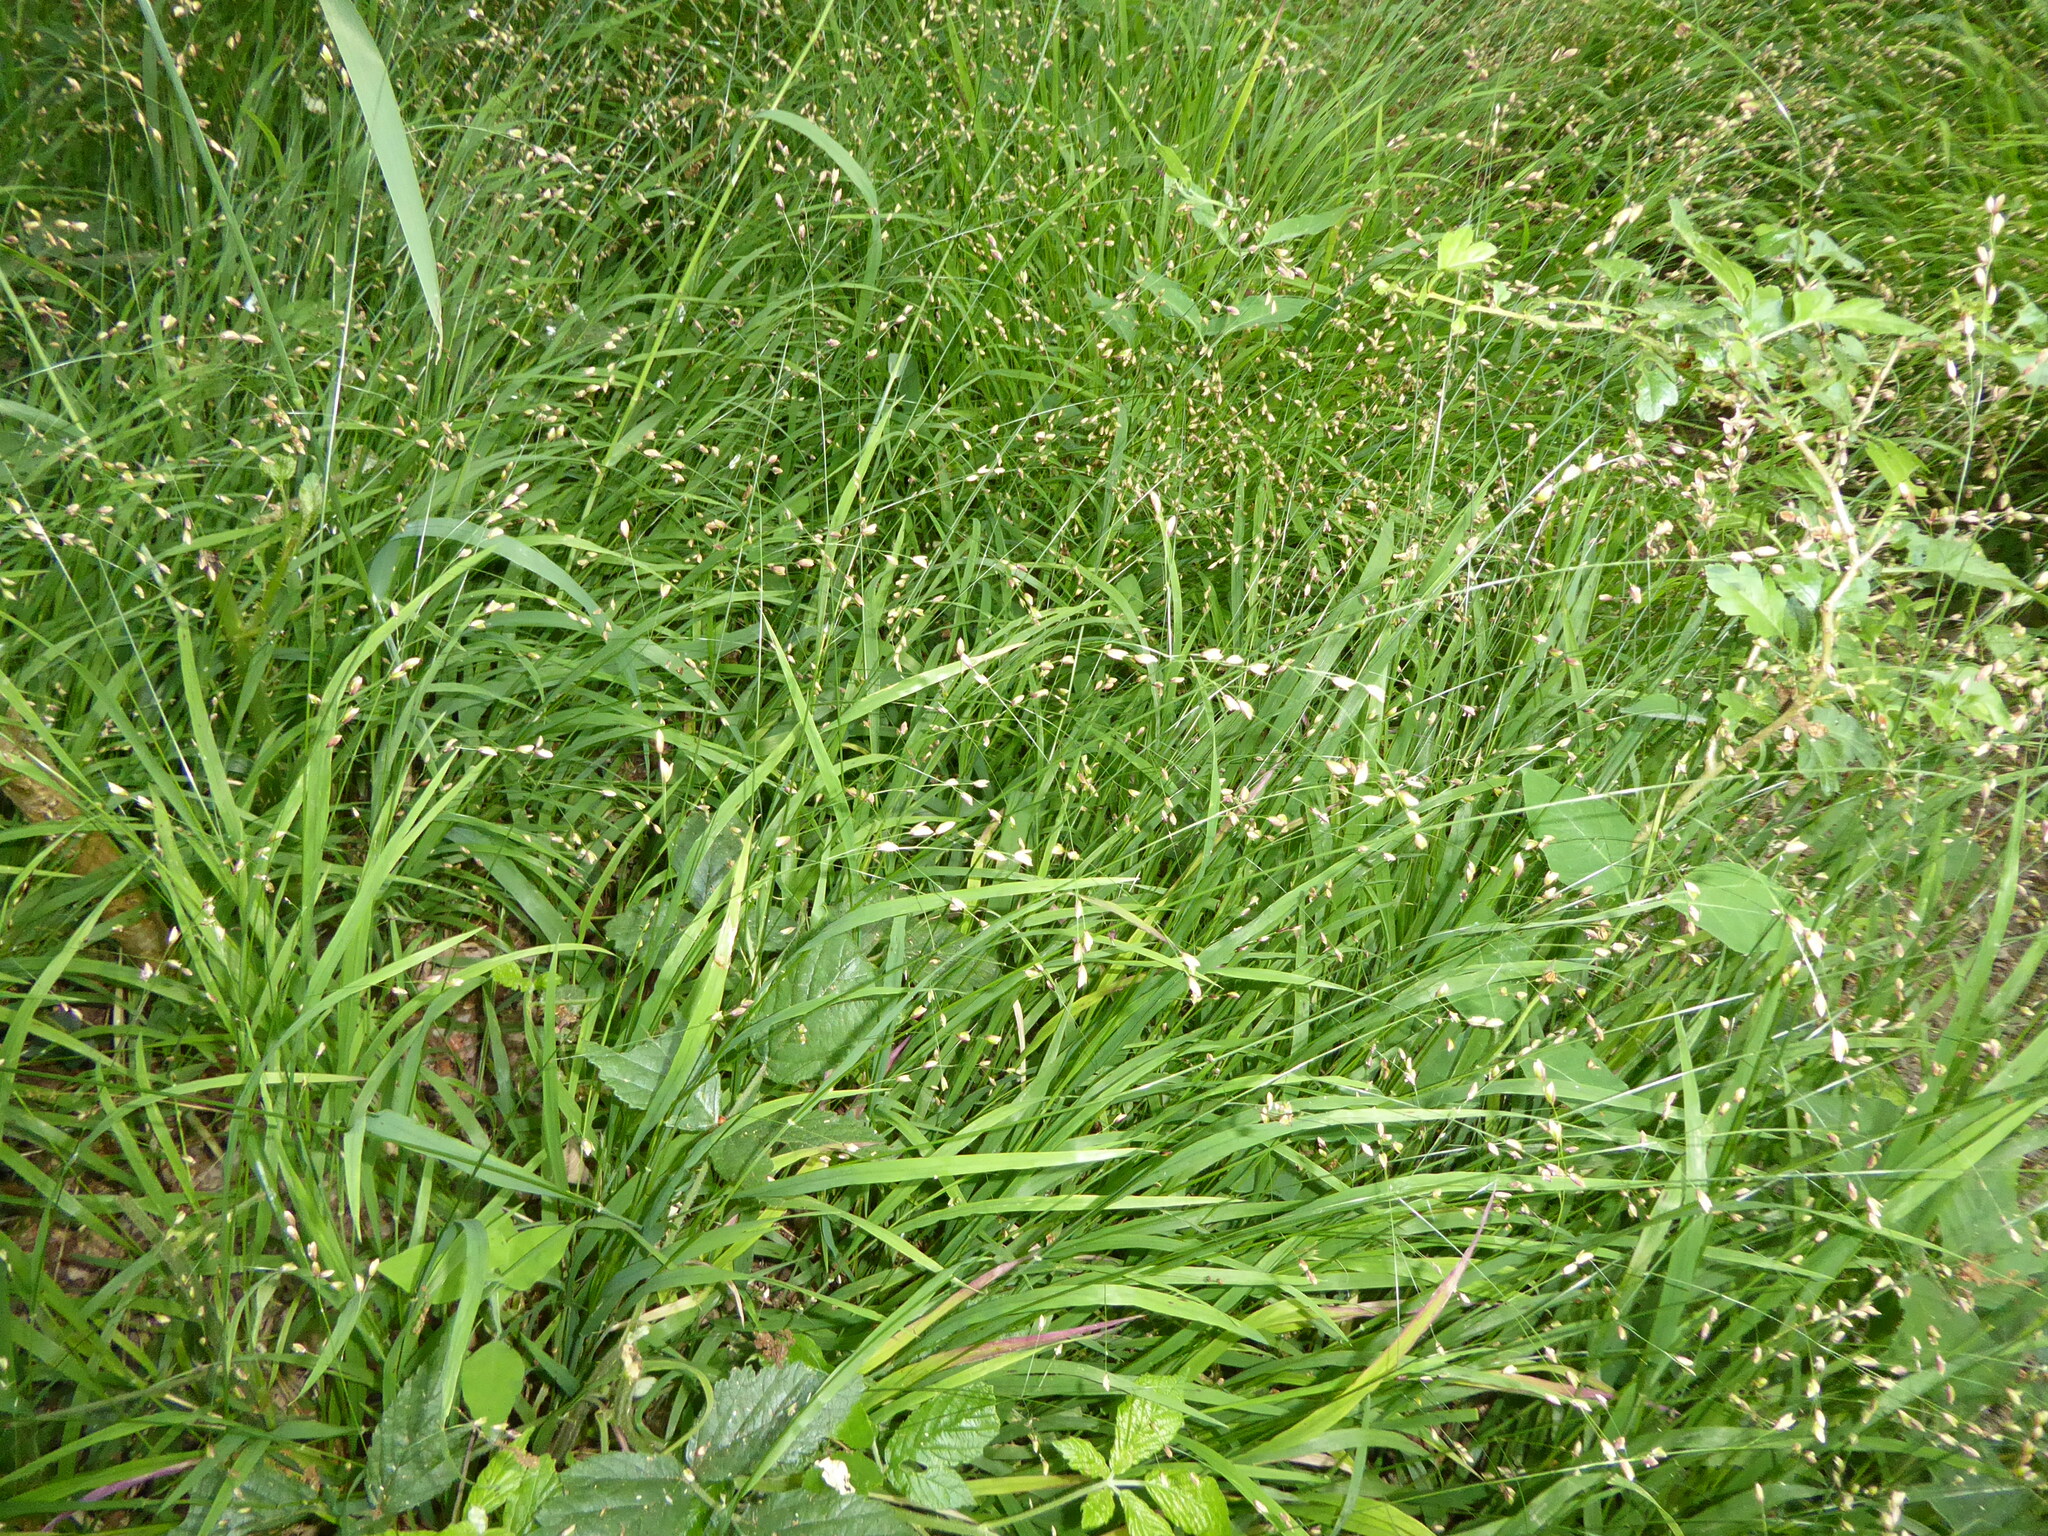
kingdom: Plantae
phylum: Tracheophyta
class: Liliopsida
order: Poales
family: Poaceae
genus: Melica
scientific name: Melica uniflora
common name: Wood melick
